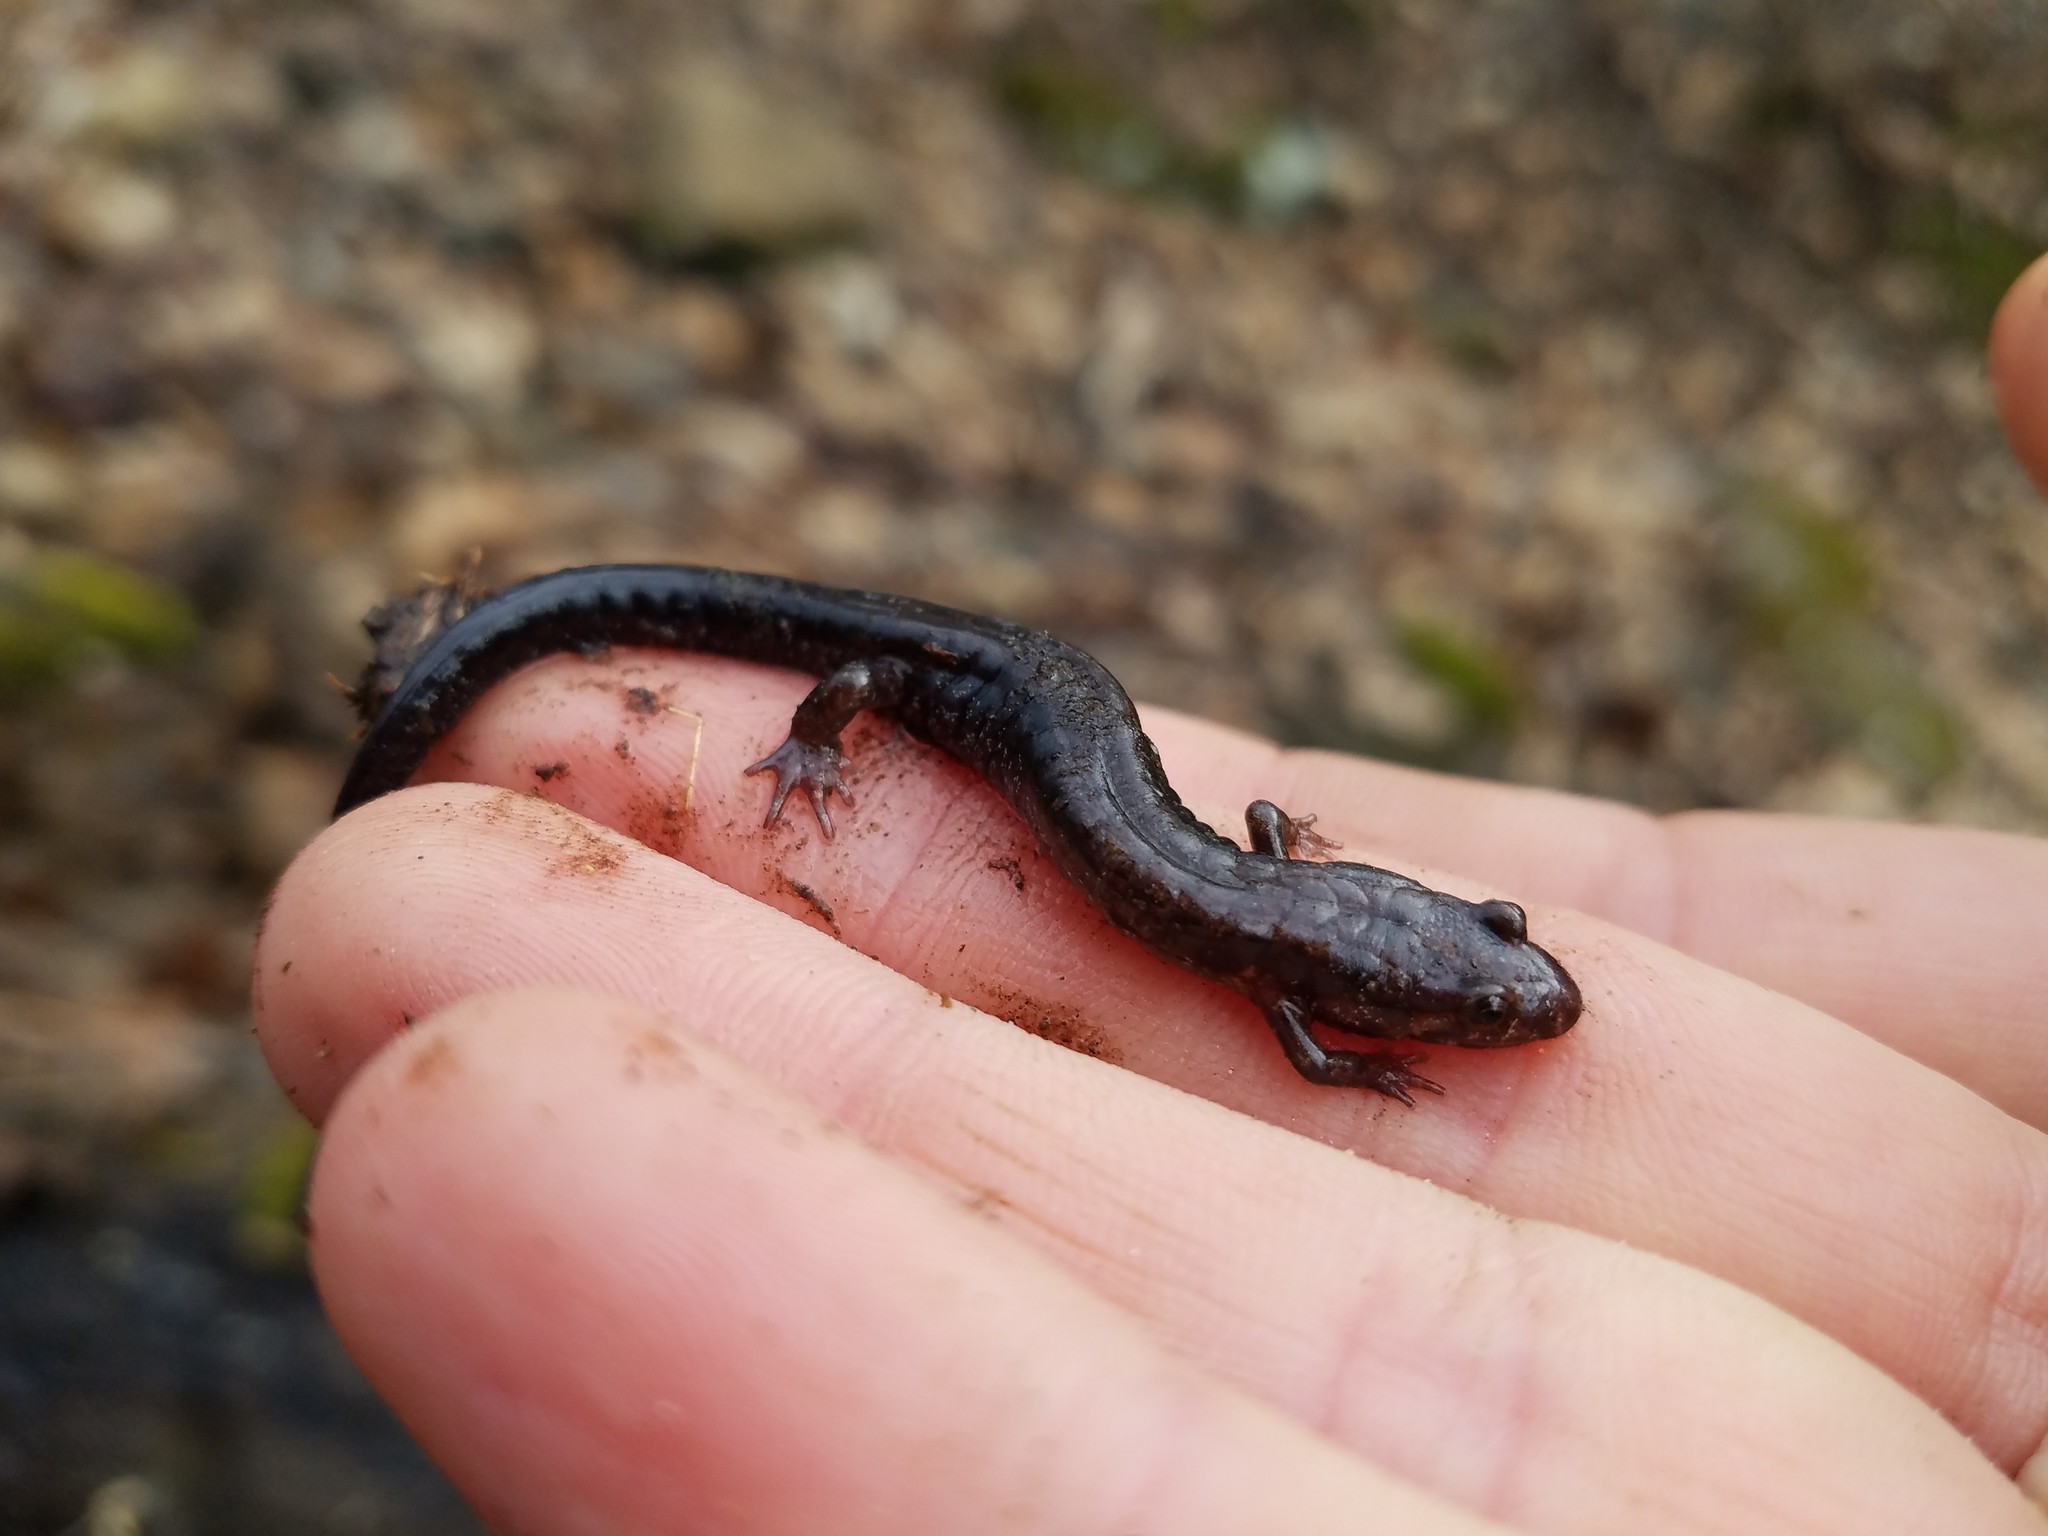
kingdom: Animalia
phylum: Chordata
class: Amphibia
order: Caudata
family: Plethodontidae
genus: Desmognathus
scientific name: Desmognathus ochrophaeus
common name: Allegheny mountain dusky salamander
